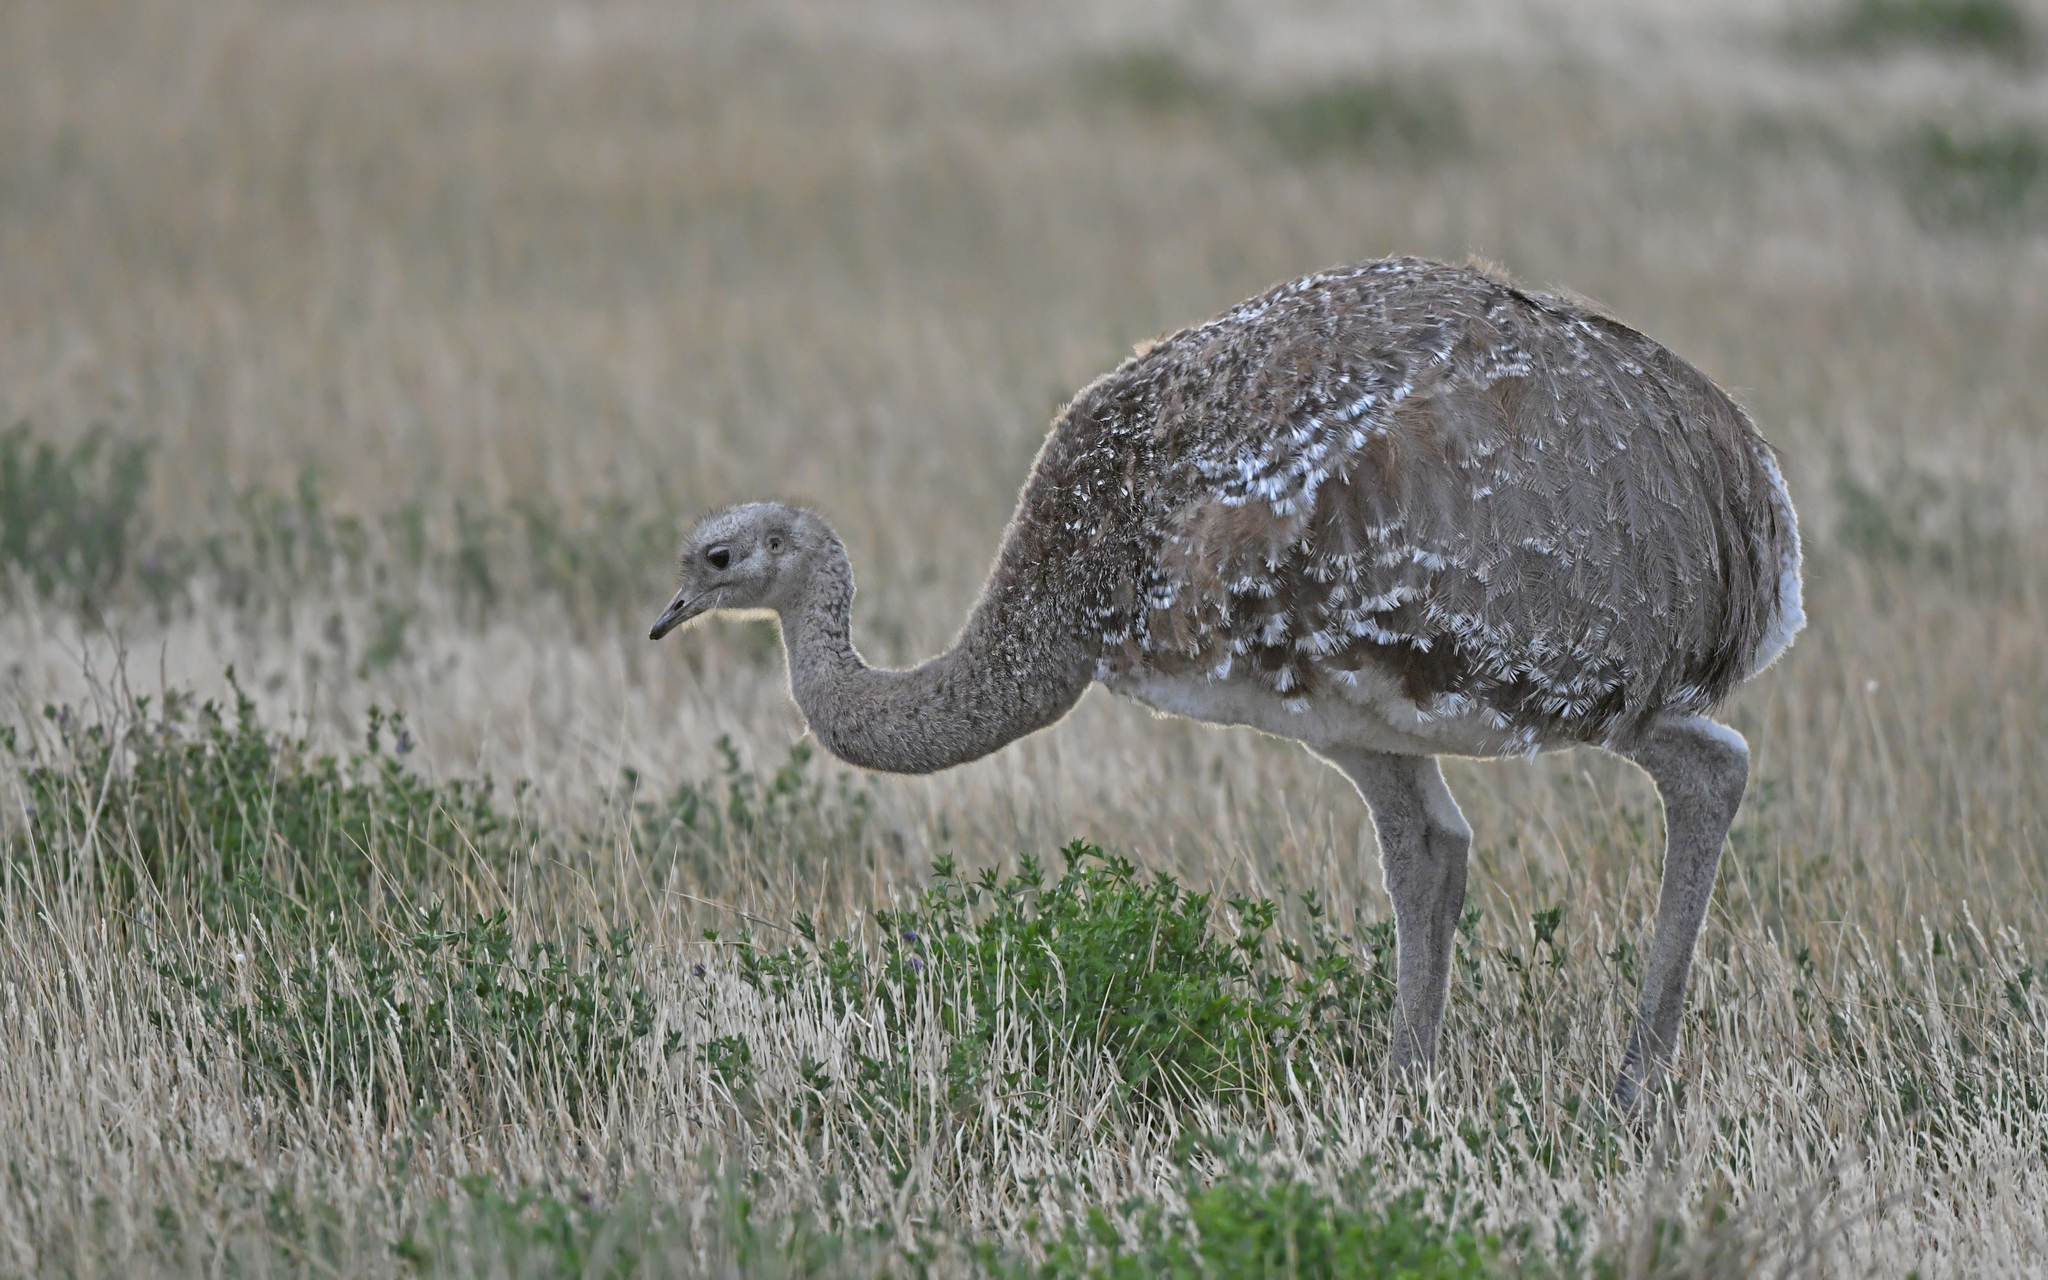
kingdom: Animalia
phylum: Chordata
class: Aves
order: Rheiformes
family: Rheidae
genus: Rhea
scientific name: Rhea pennata
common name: Lesser rhea
